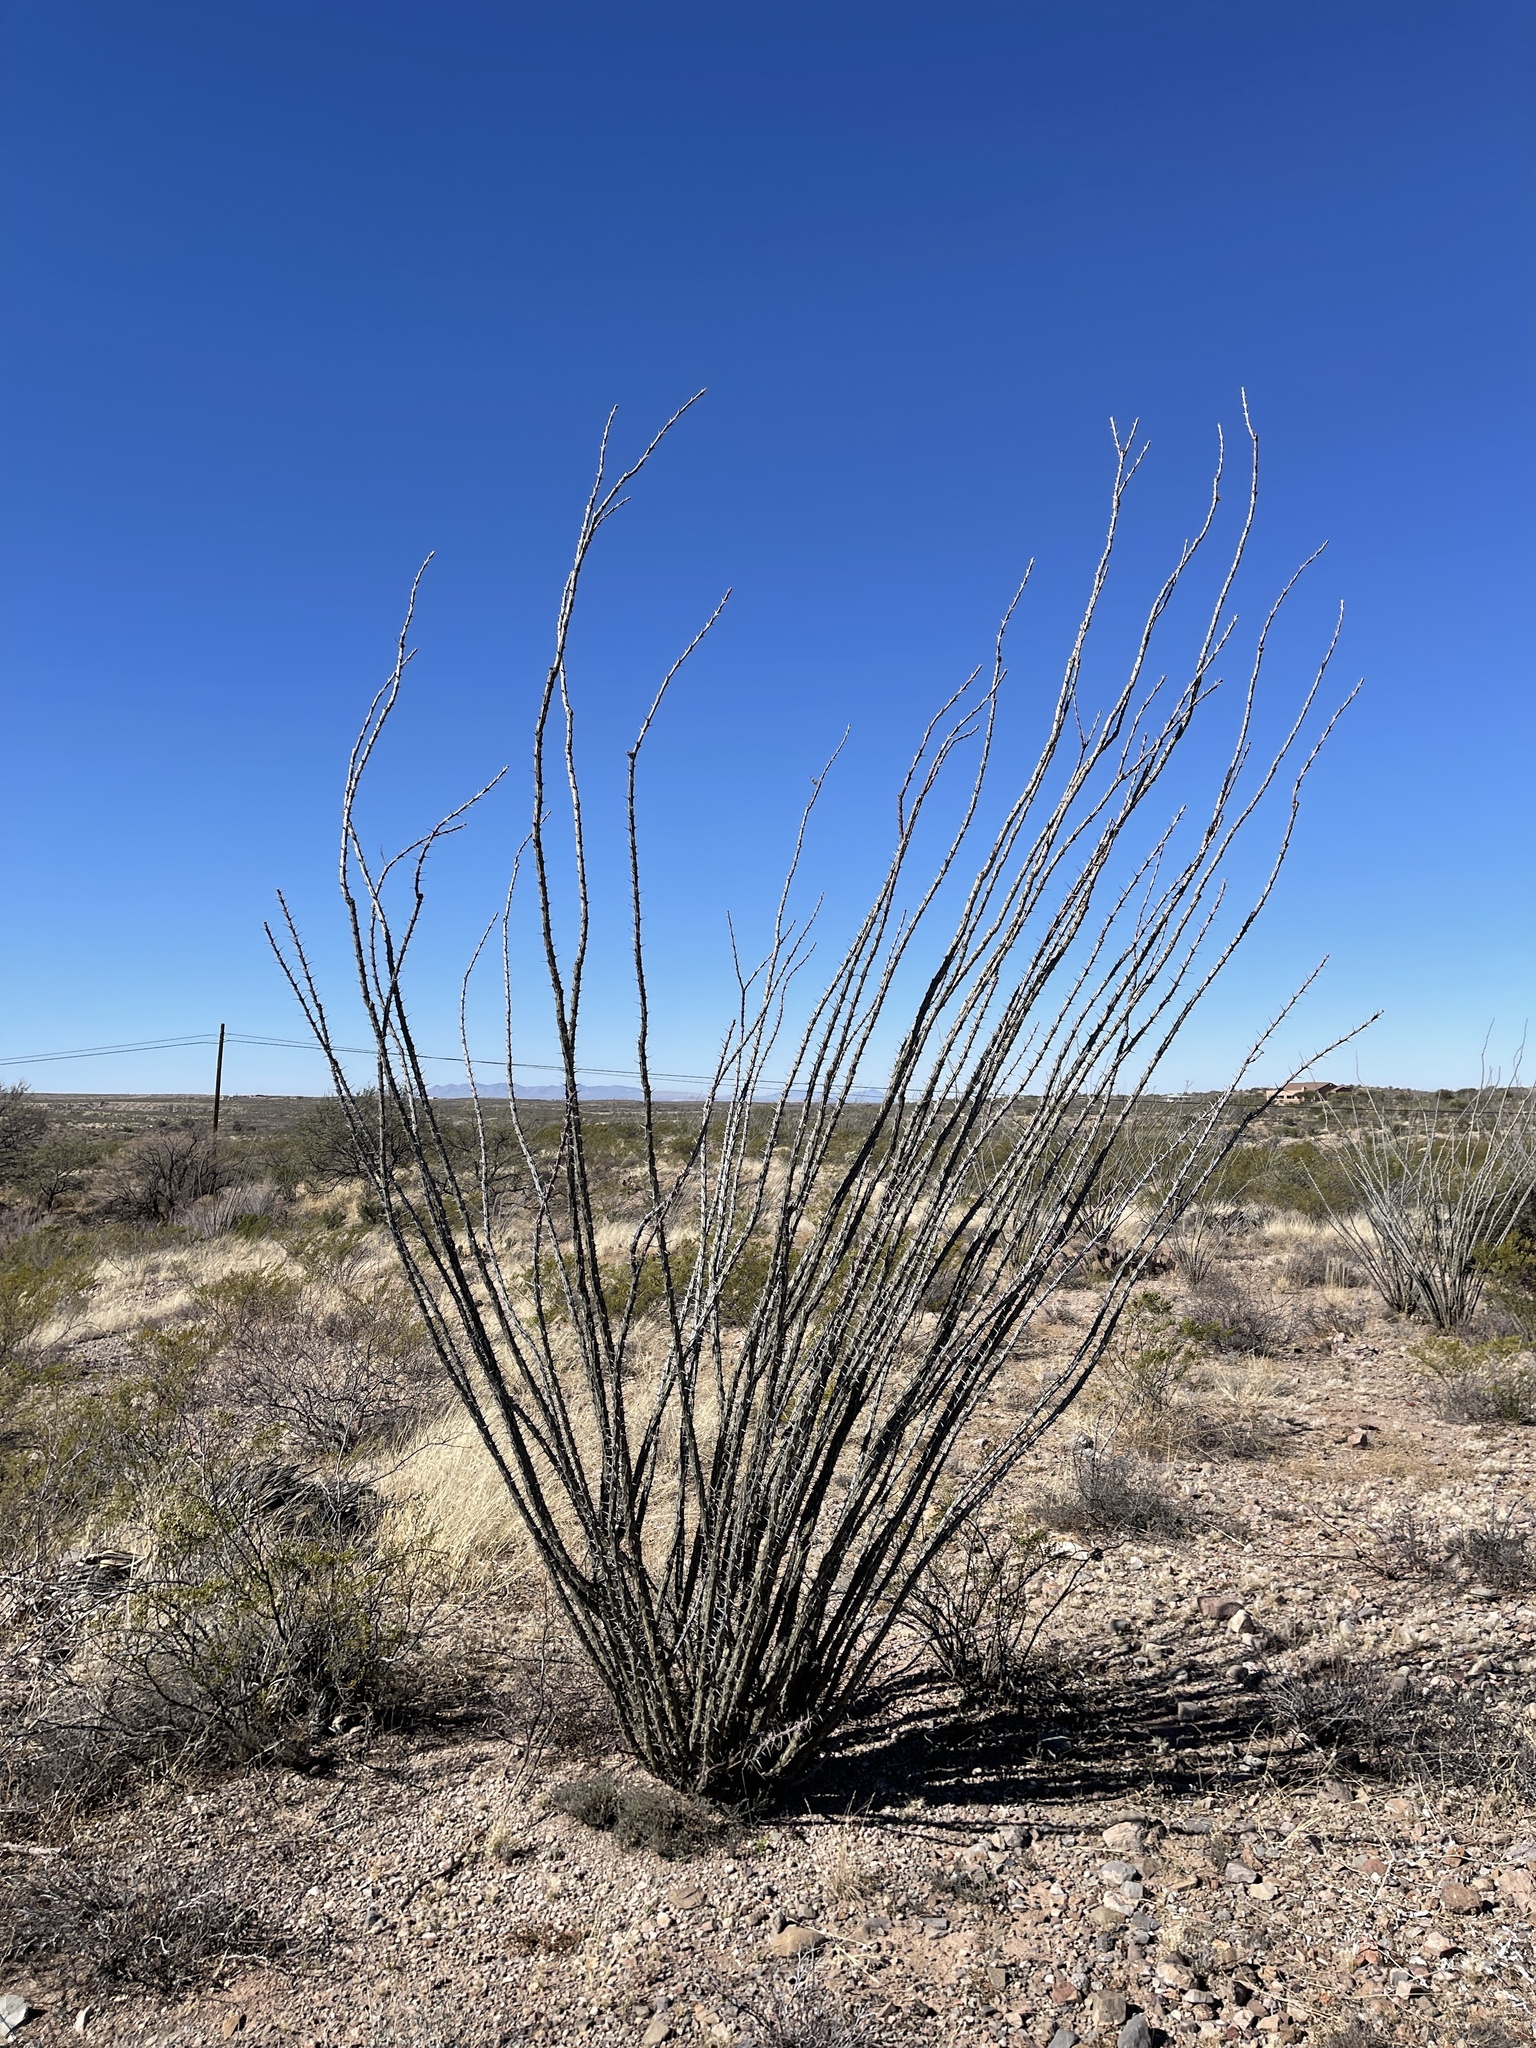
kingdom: Plantae
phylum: Tracheophyta
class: Magnoliopsida
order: Ericales
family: Fouquieriaceae
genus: Fouquieria
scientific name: Fouquieria splendens
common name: Vine-cactus
